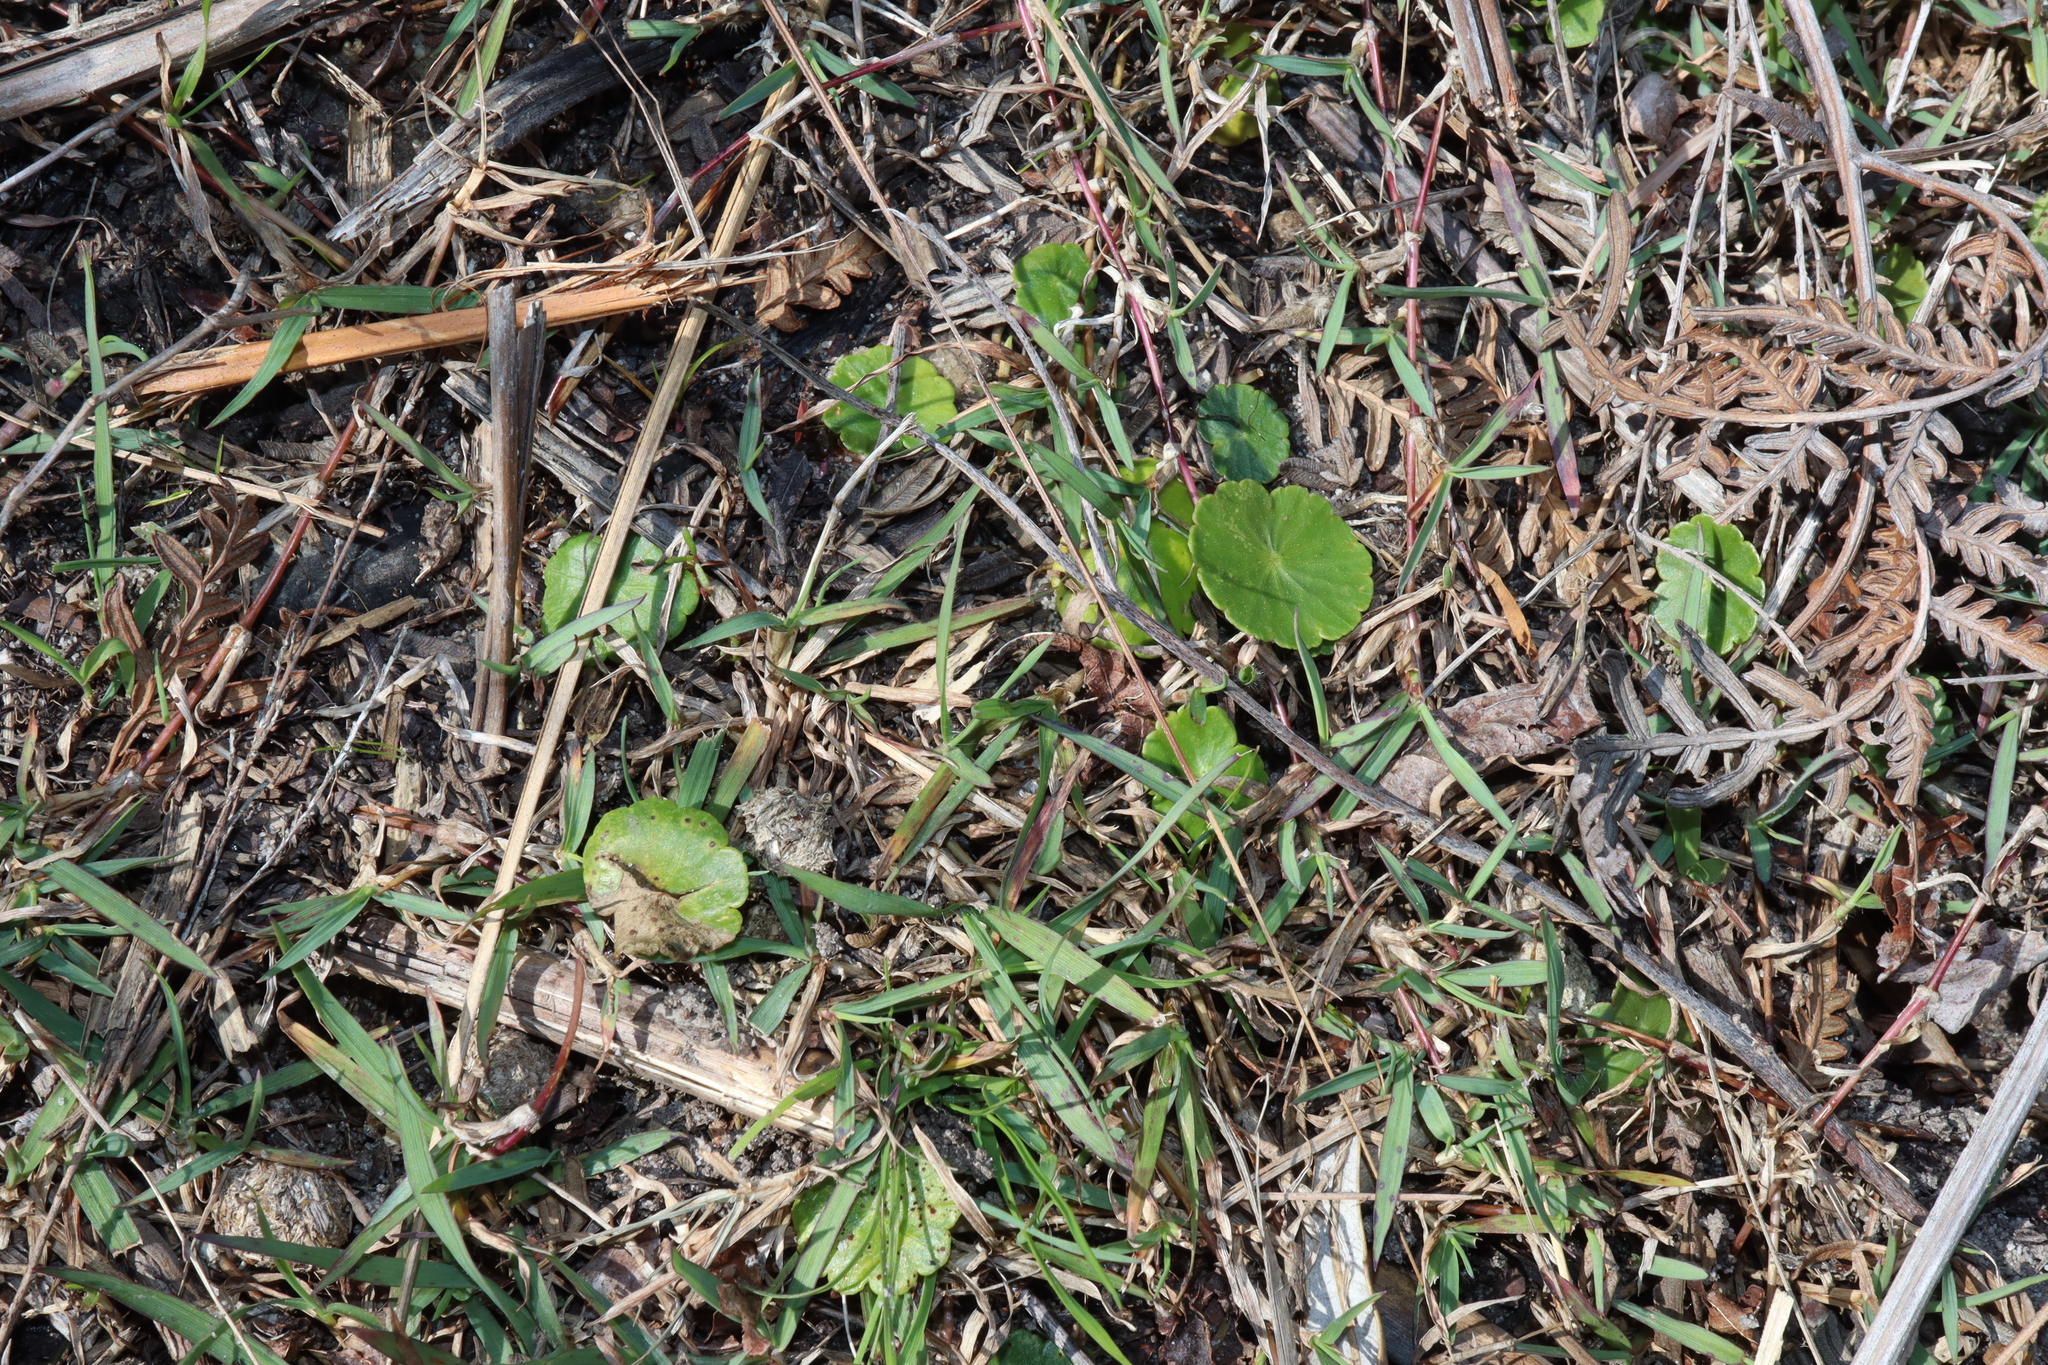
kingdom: Plantae
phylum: Tracheophyta
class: Magnoliopsida
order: Apiales
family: Araliaceae
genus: Hydrocotyle
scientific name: Hydrocotyle bonariensis
